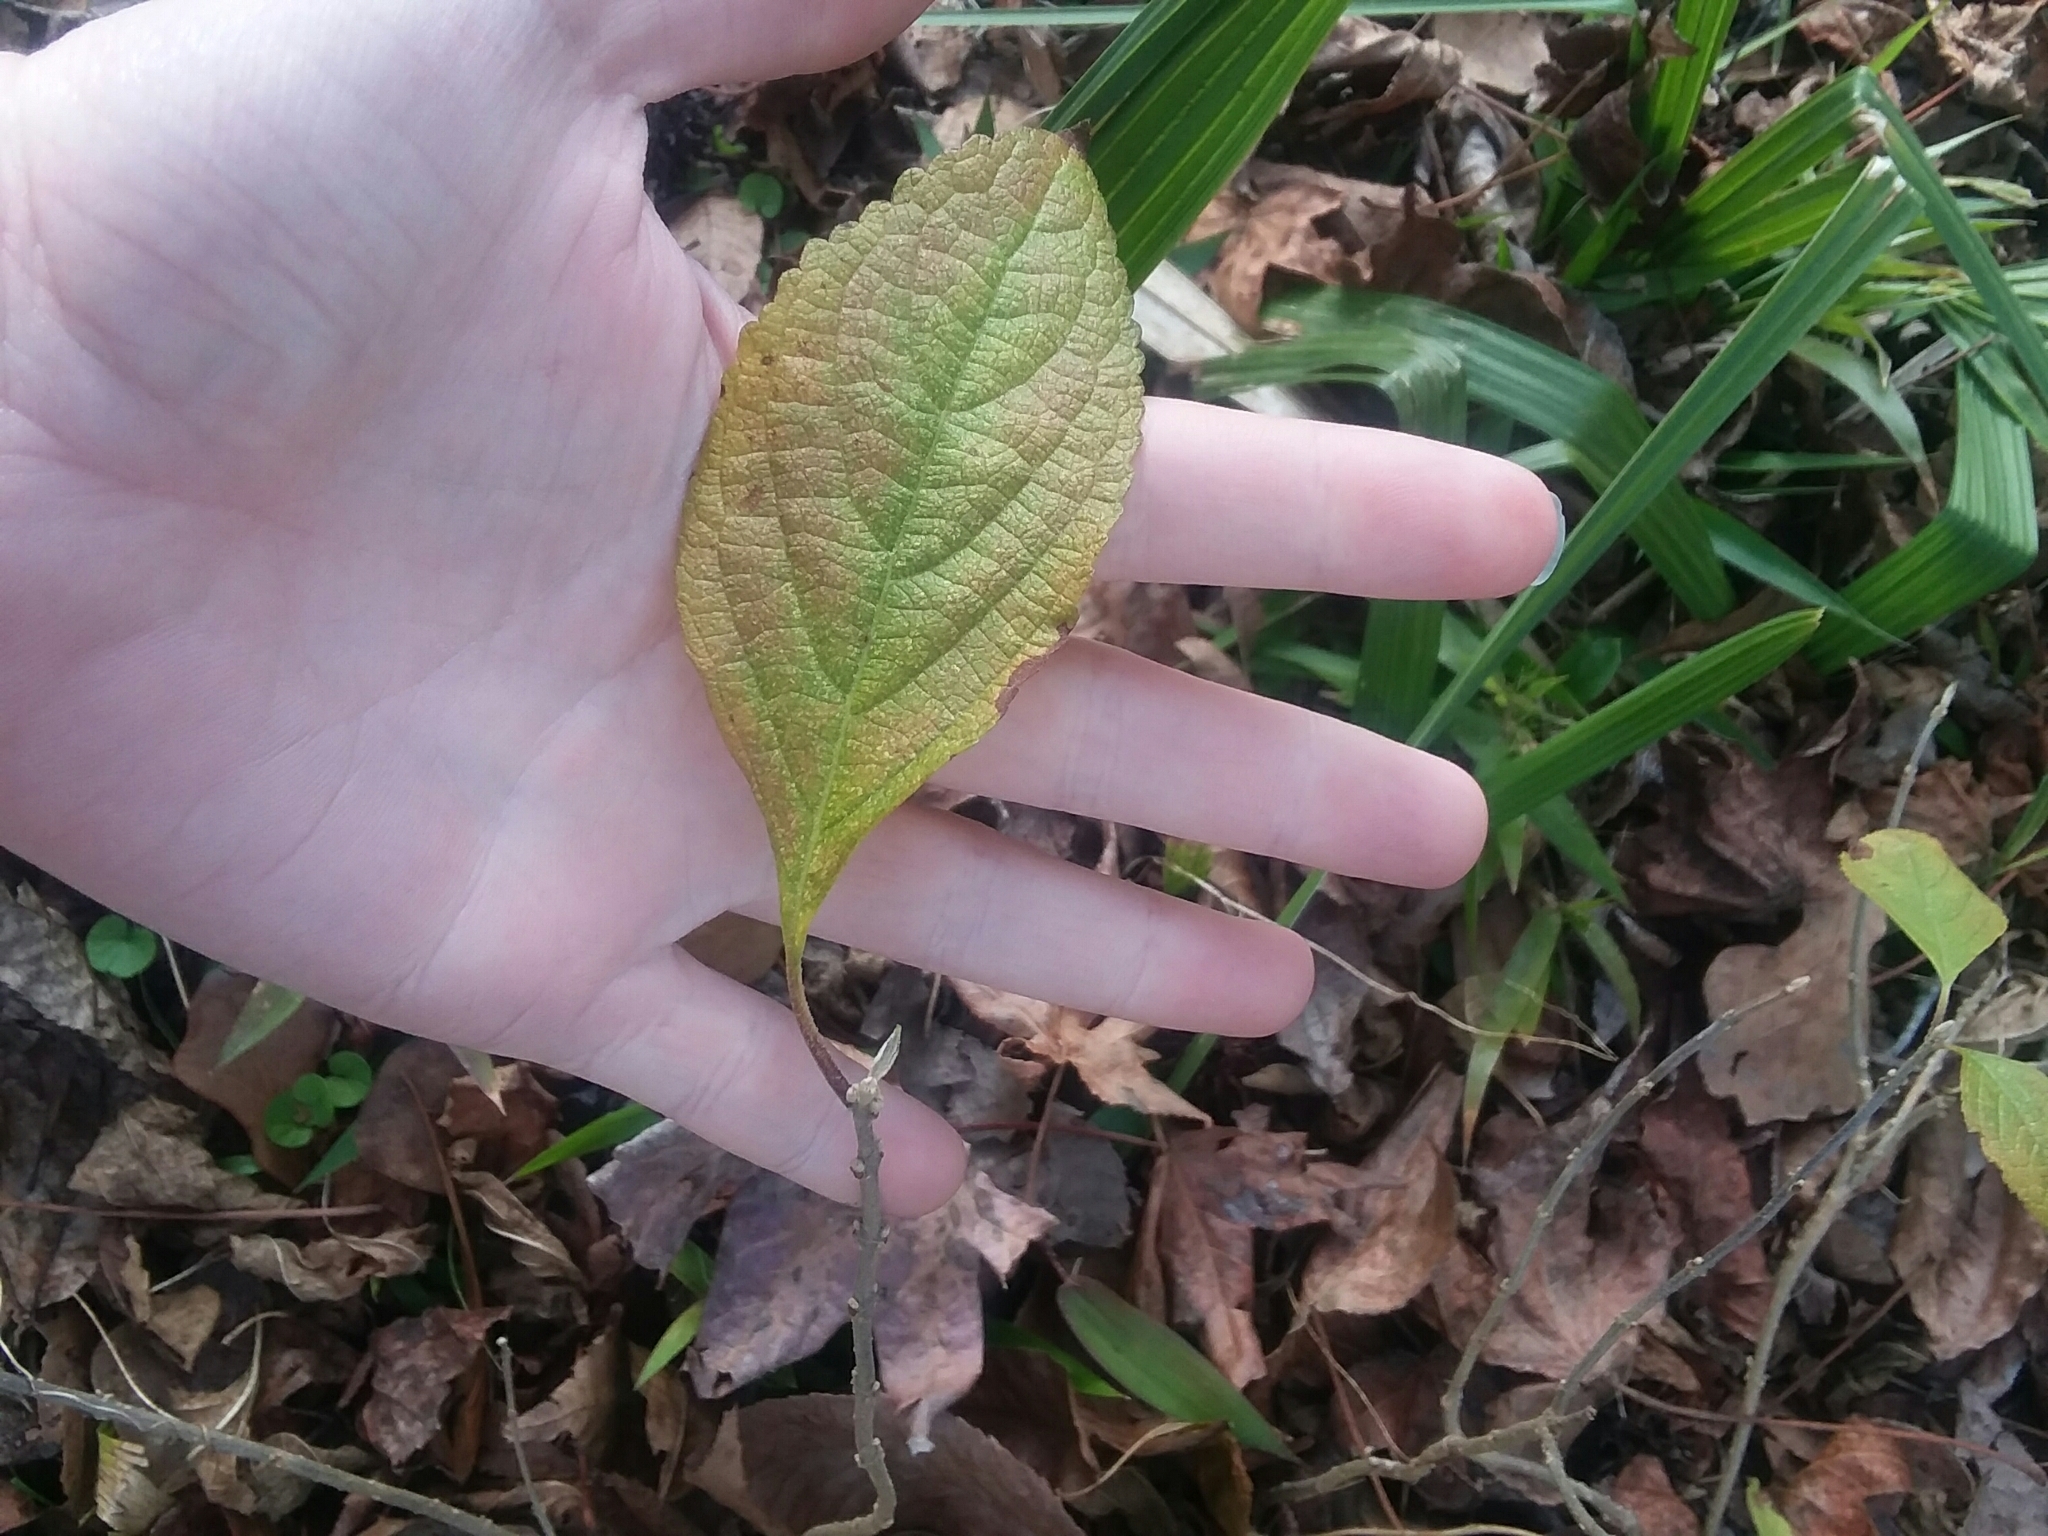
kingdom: Plantae
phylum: Tracheophyta
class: Magnoliopsida
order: Lamiales
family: Lamiaceae
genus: Callicarpa
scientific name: Callicarpa americana
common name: American beautyberry
